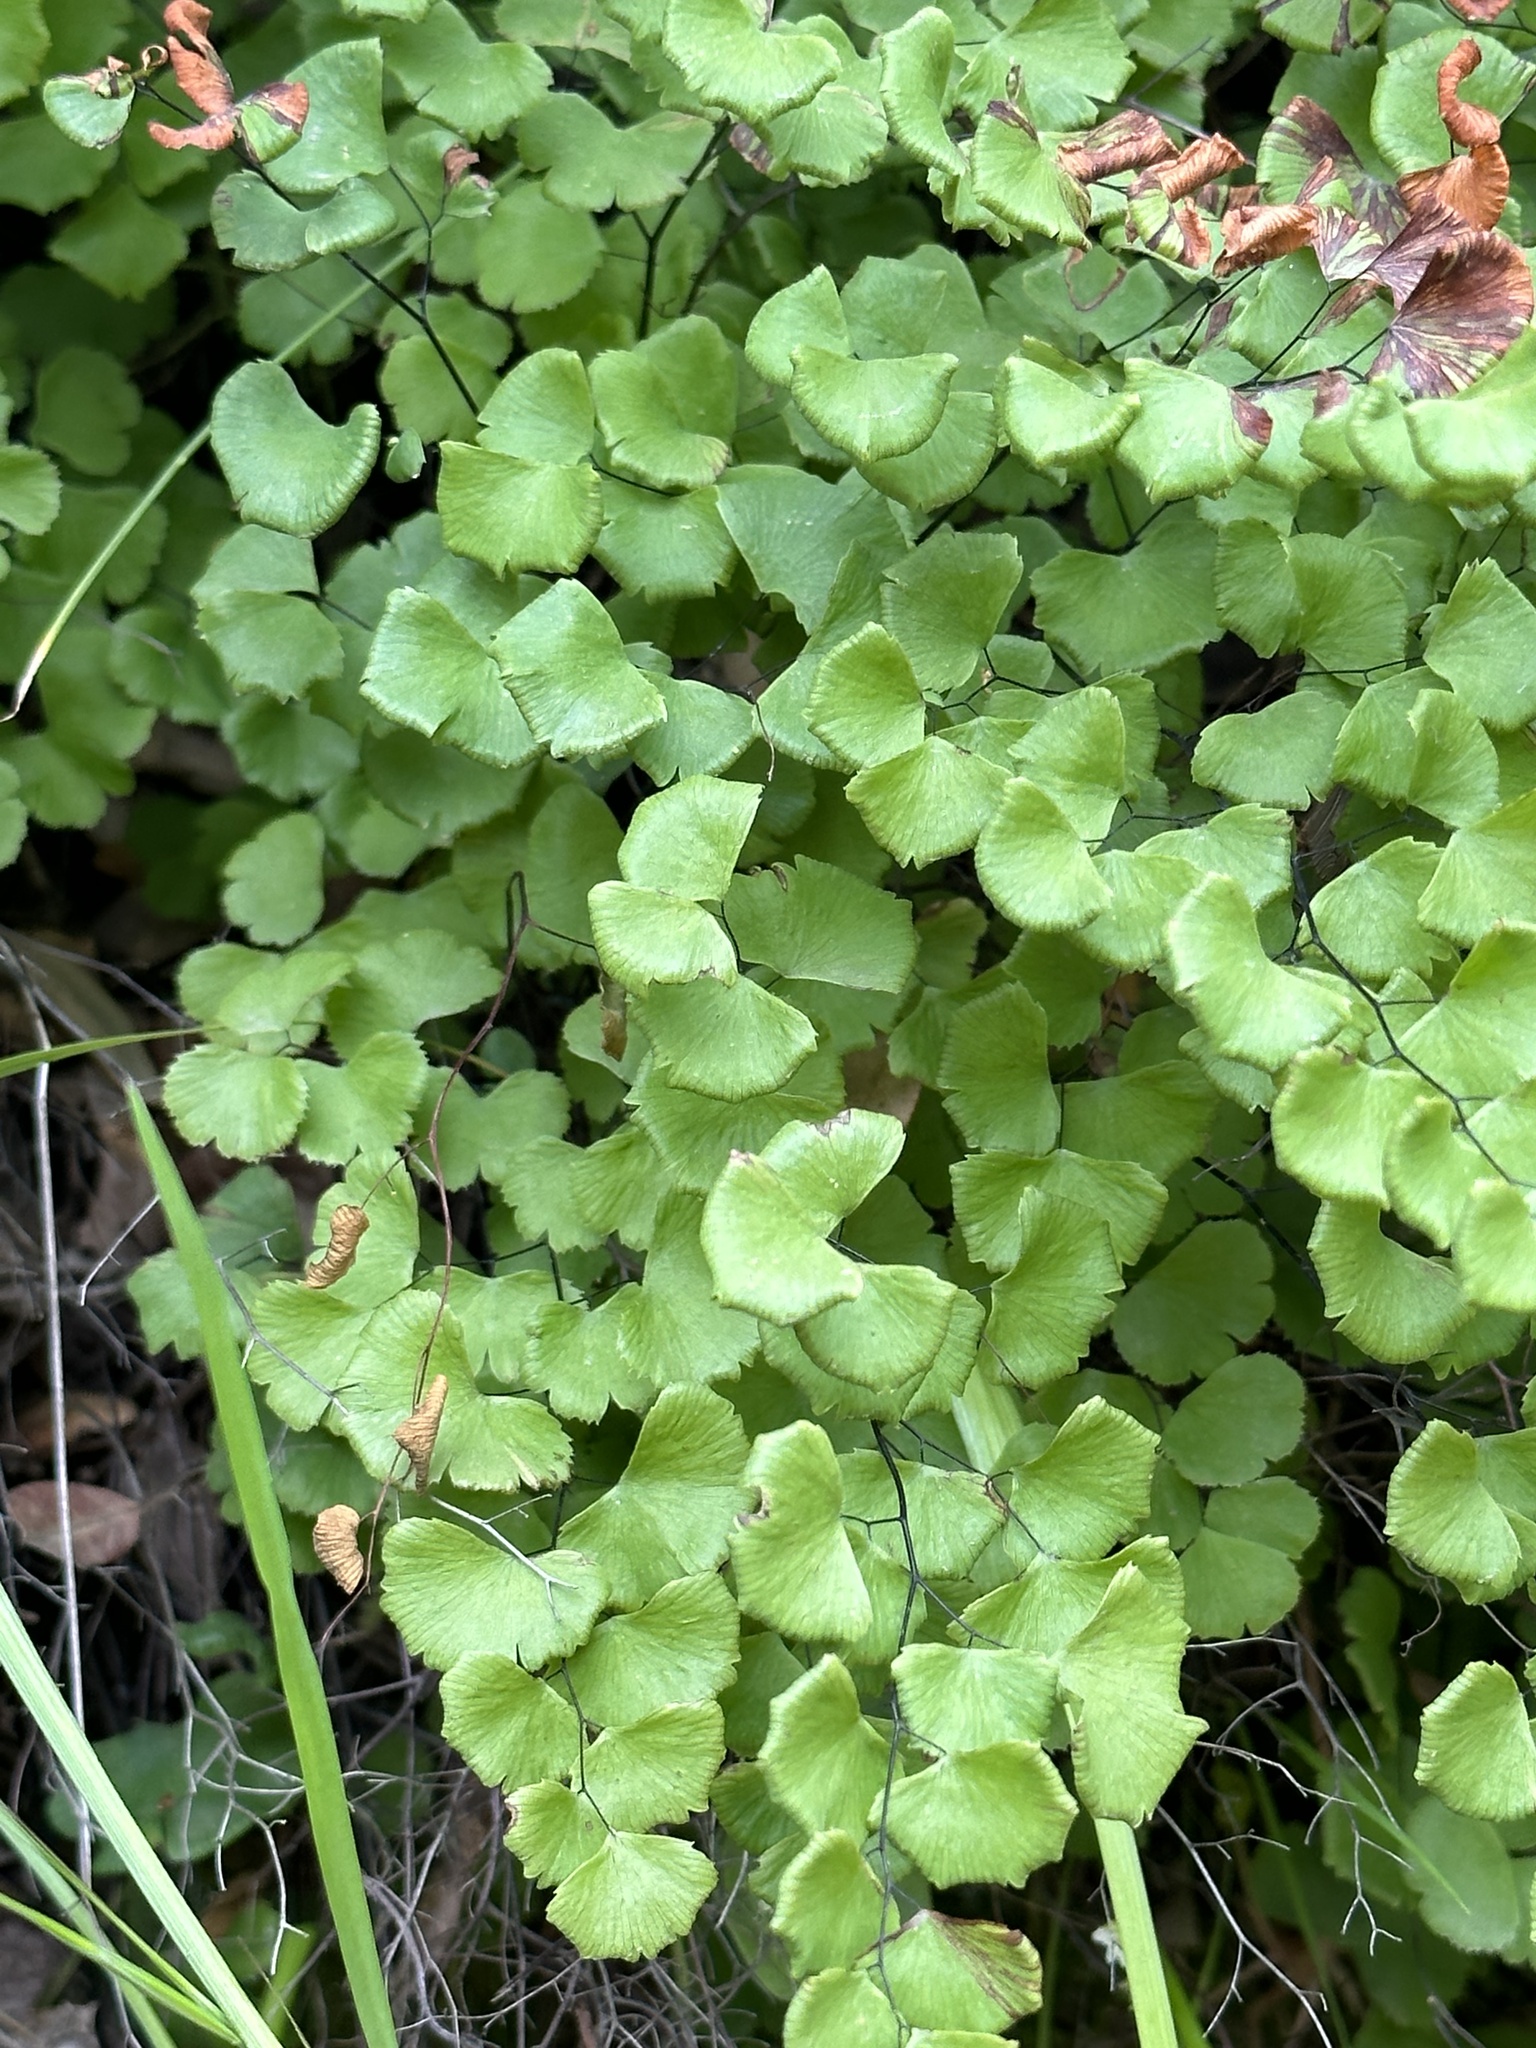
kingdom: Plantae
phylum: Tracheophyta
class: Polypodiopsida
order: Polypodiales
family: Pteridaceae
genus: Adiantum
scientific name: Adiantum jordanii
